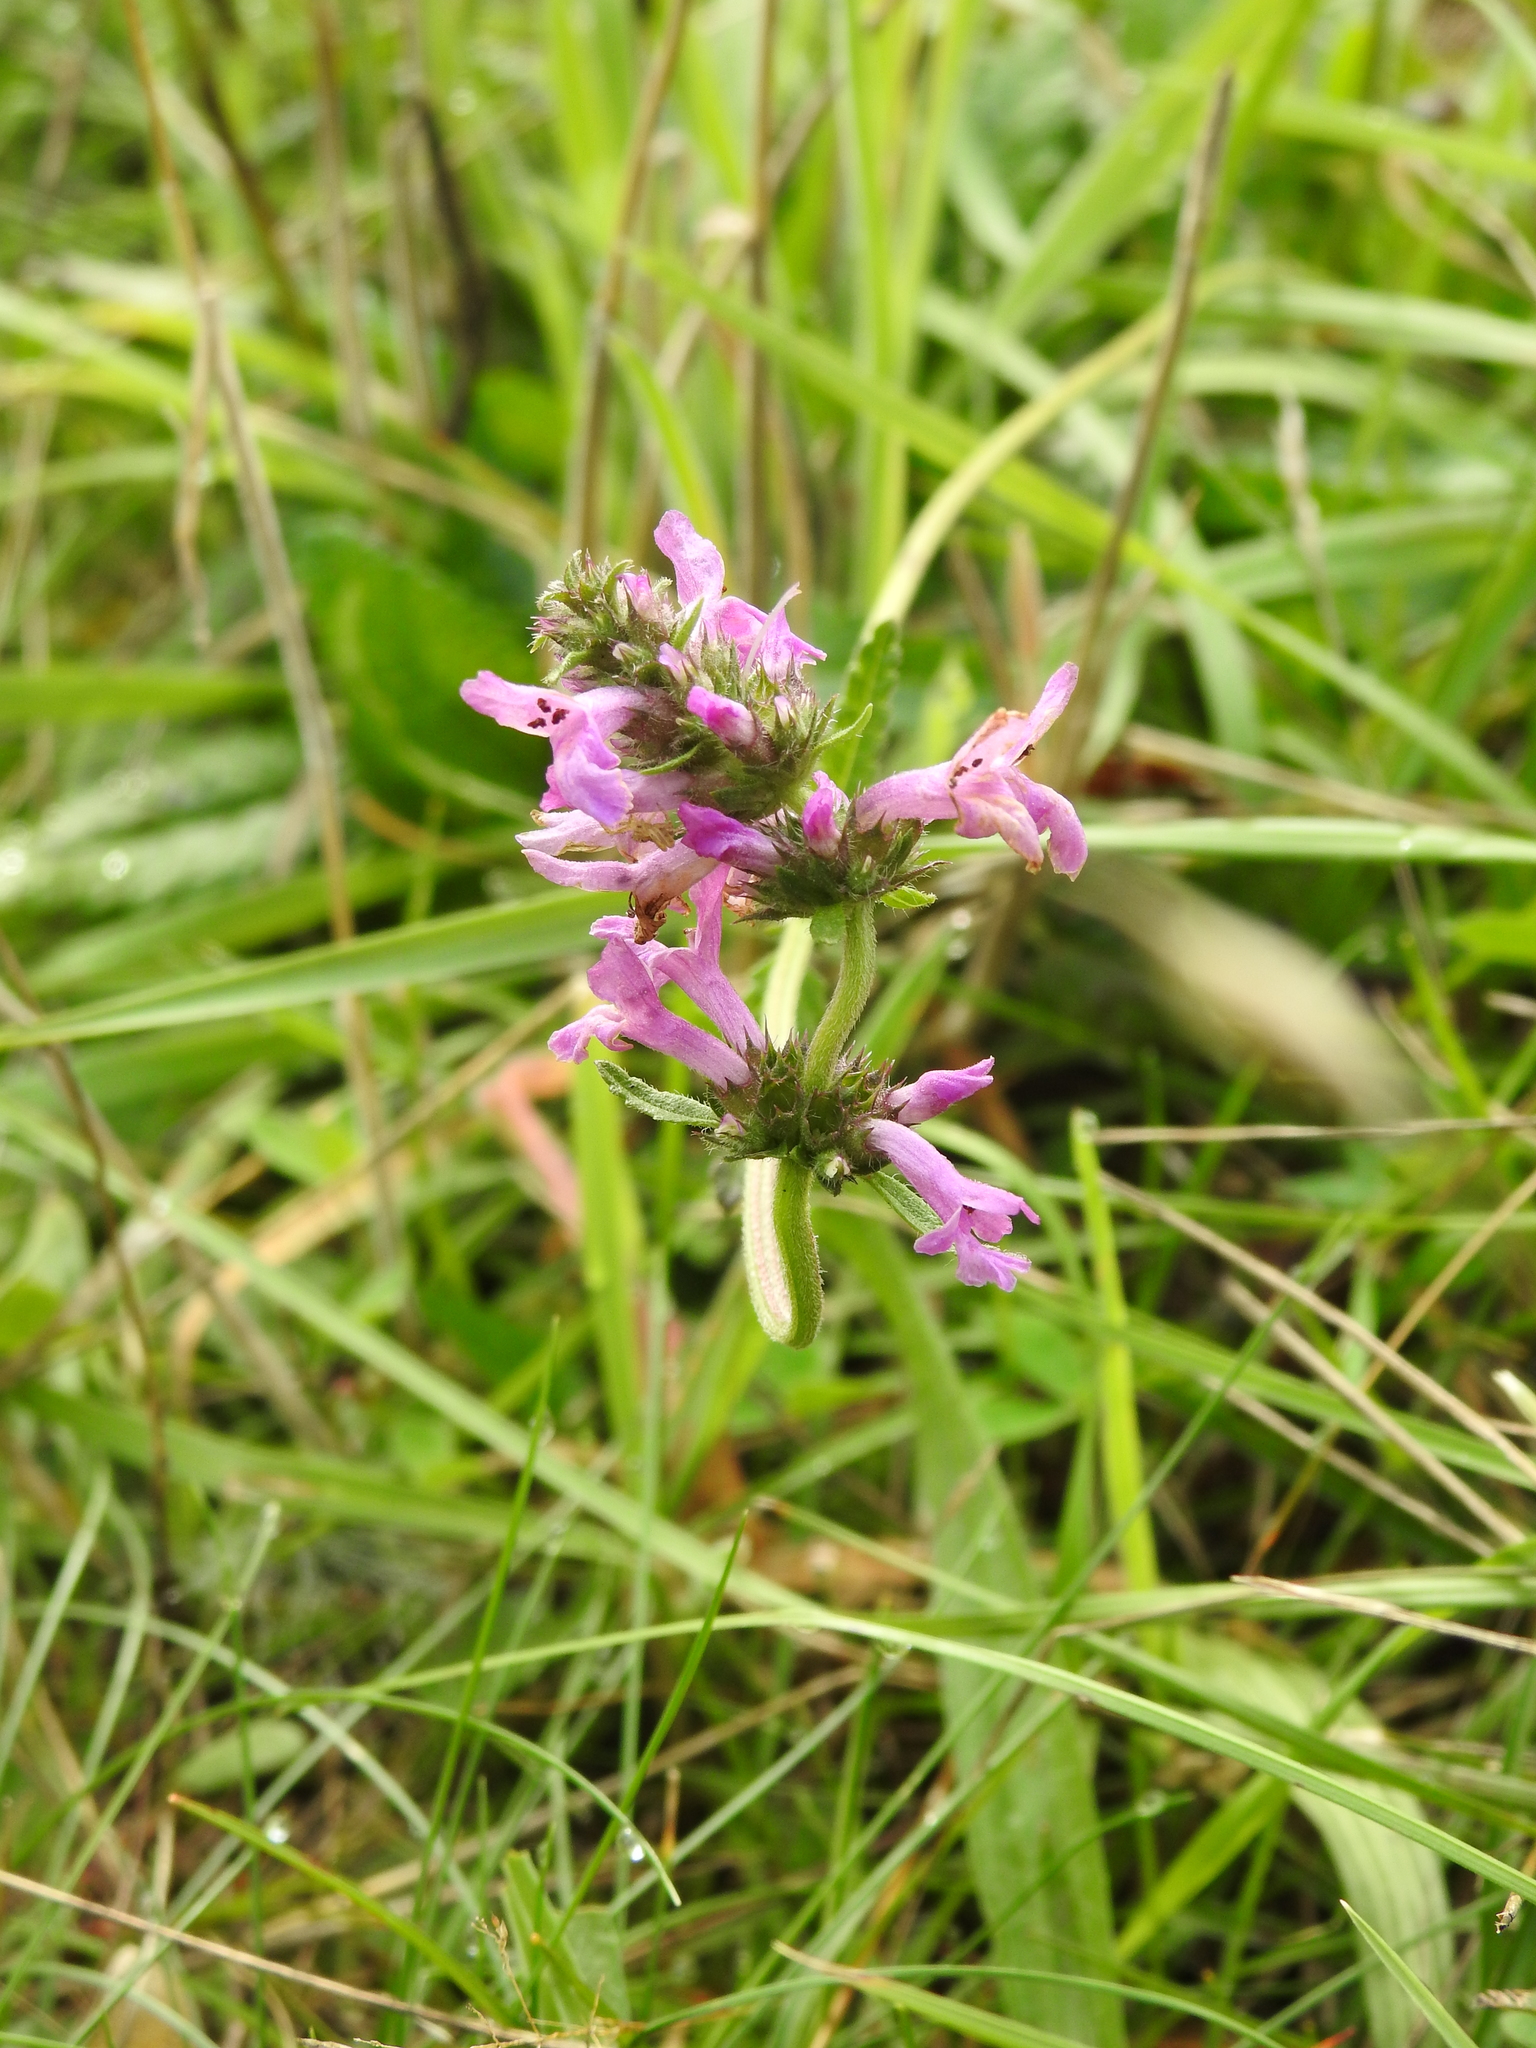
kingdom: Plantae
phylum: Tracheophyta
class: Magnoliopsida
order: Lamiales
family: Lamiaceae
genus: Betonica
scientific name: Betonica officinalis
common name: Bishop's-wort
